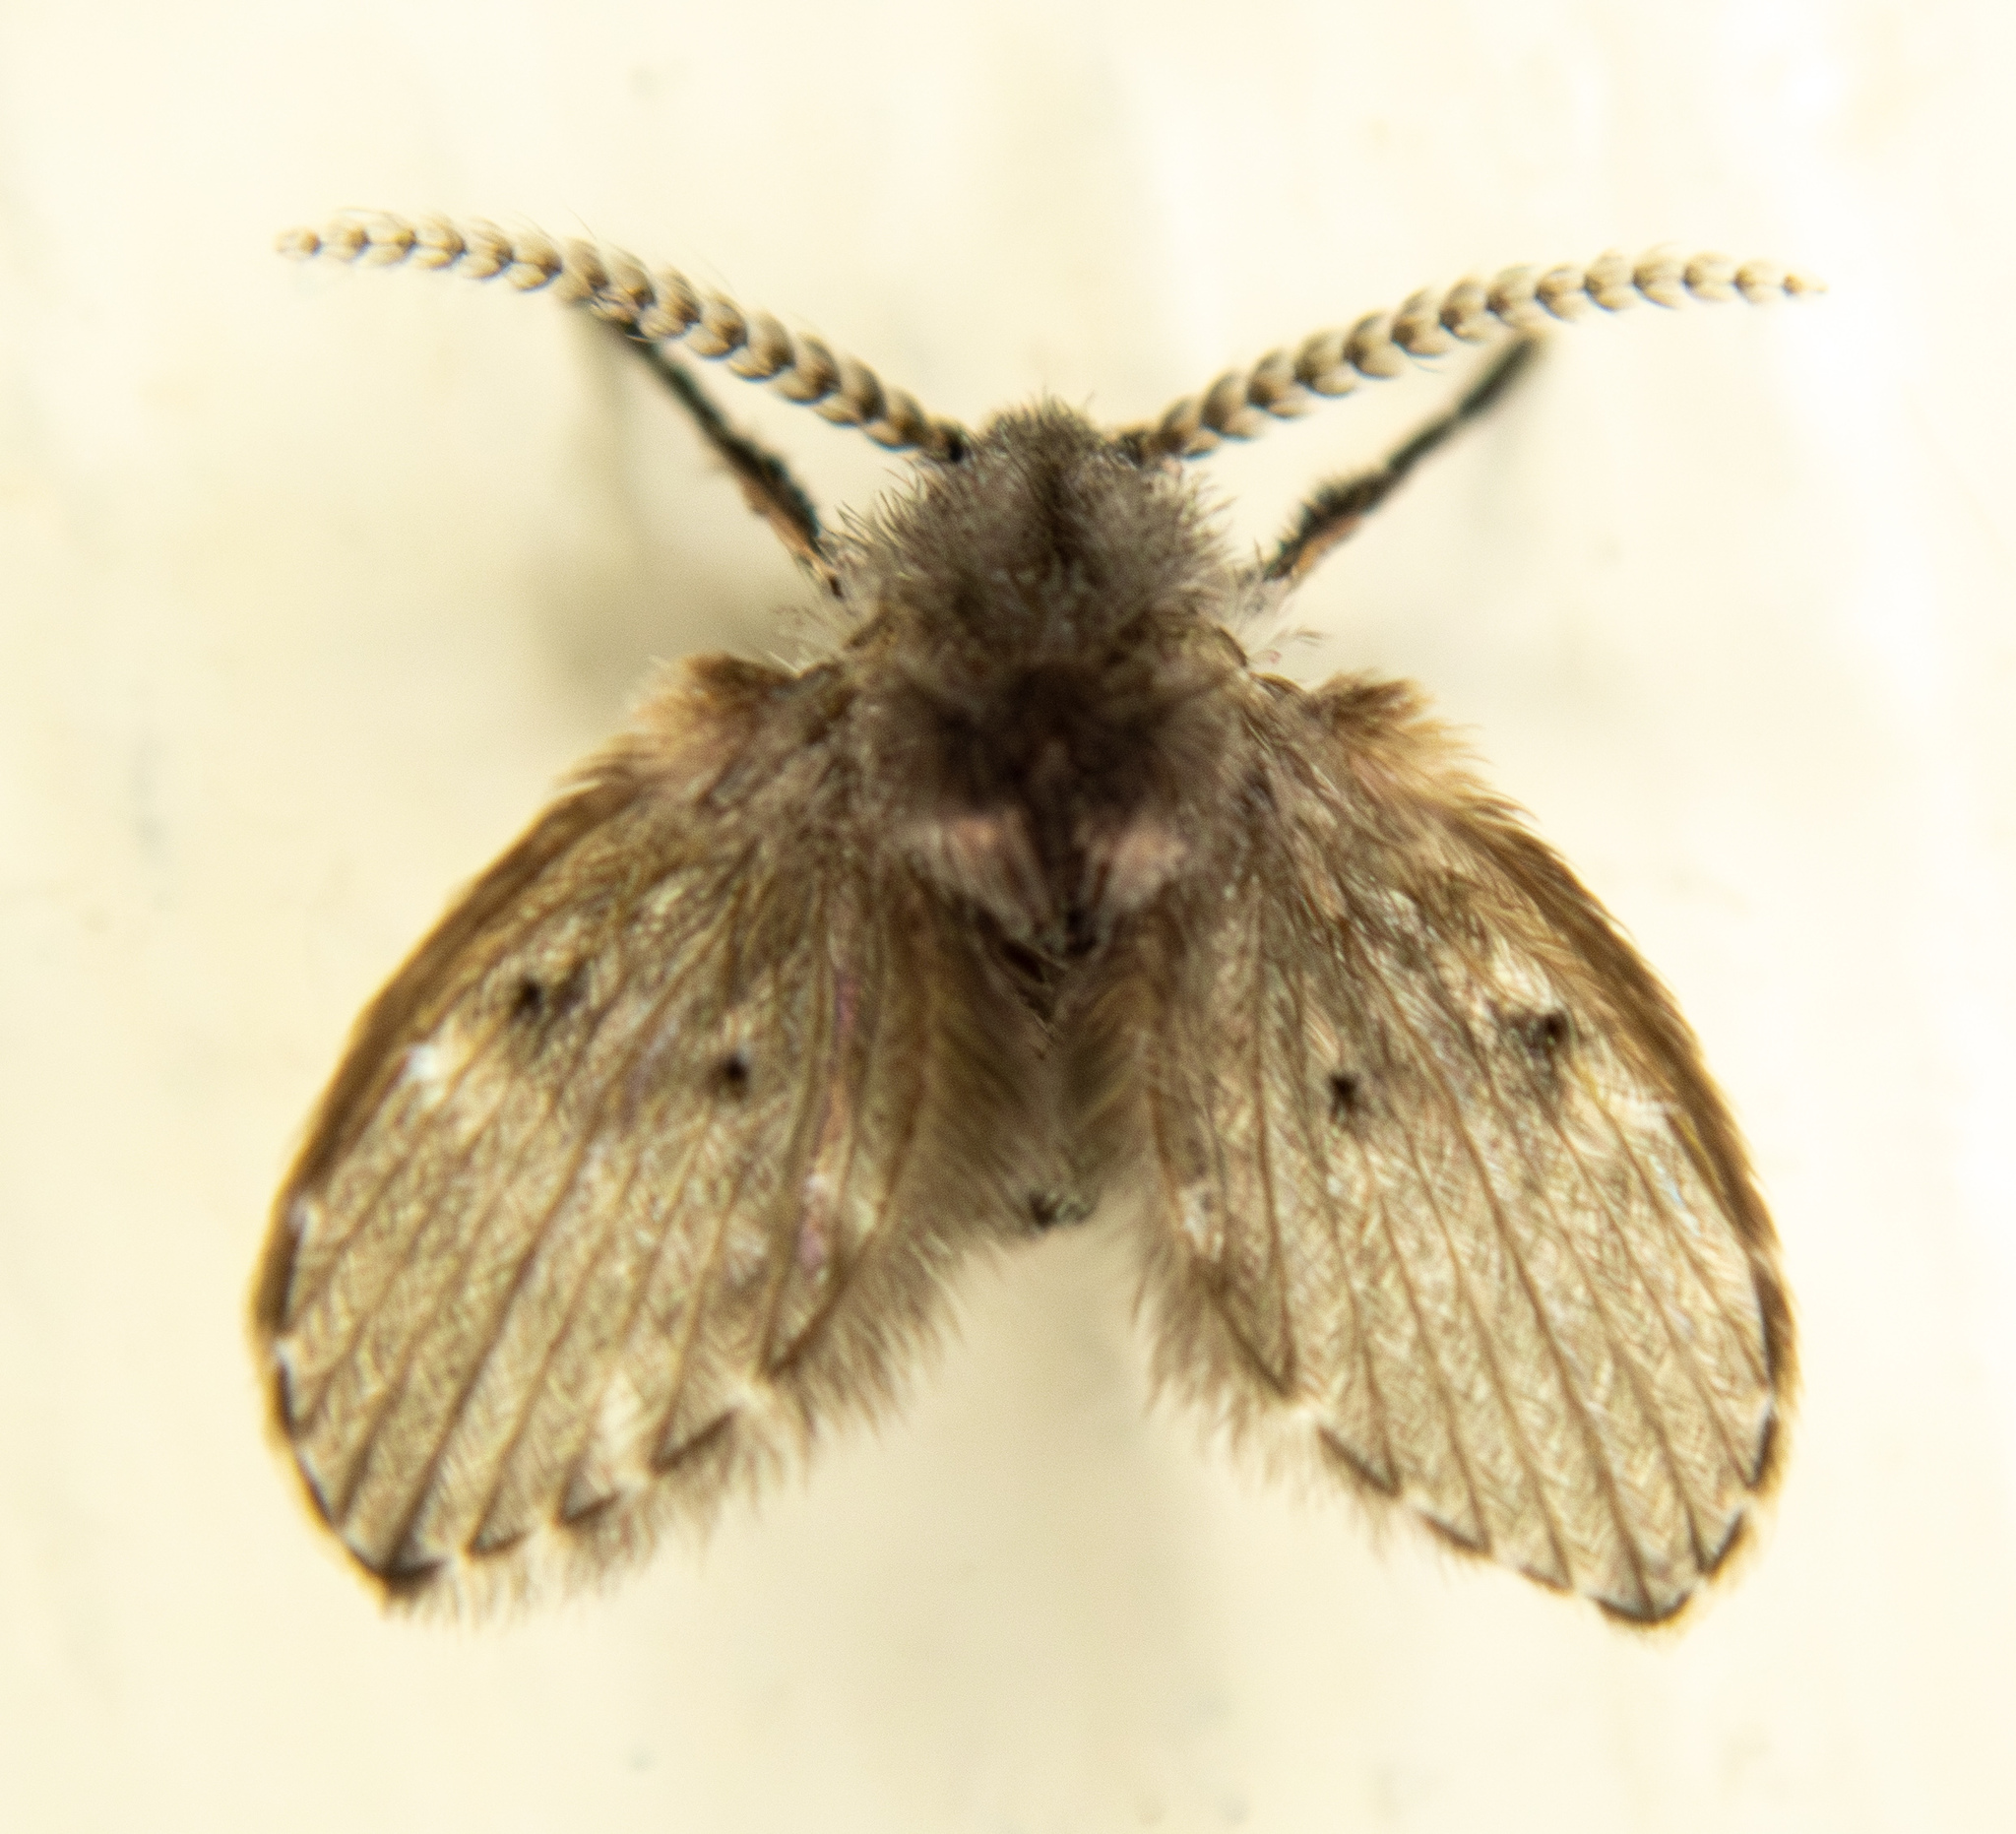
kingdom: Animalia
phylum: Arthropoda
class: Insecta
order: Diptera
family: Psychodidae
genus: Clogmia
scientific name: Clogmia albipunctatus
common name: White-spotted moth fly
